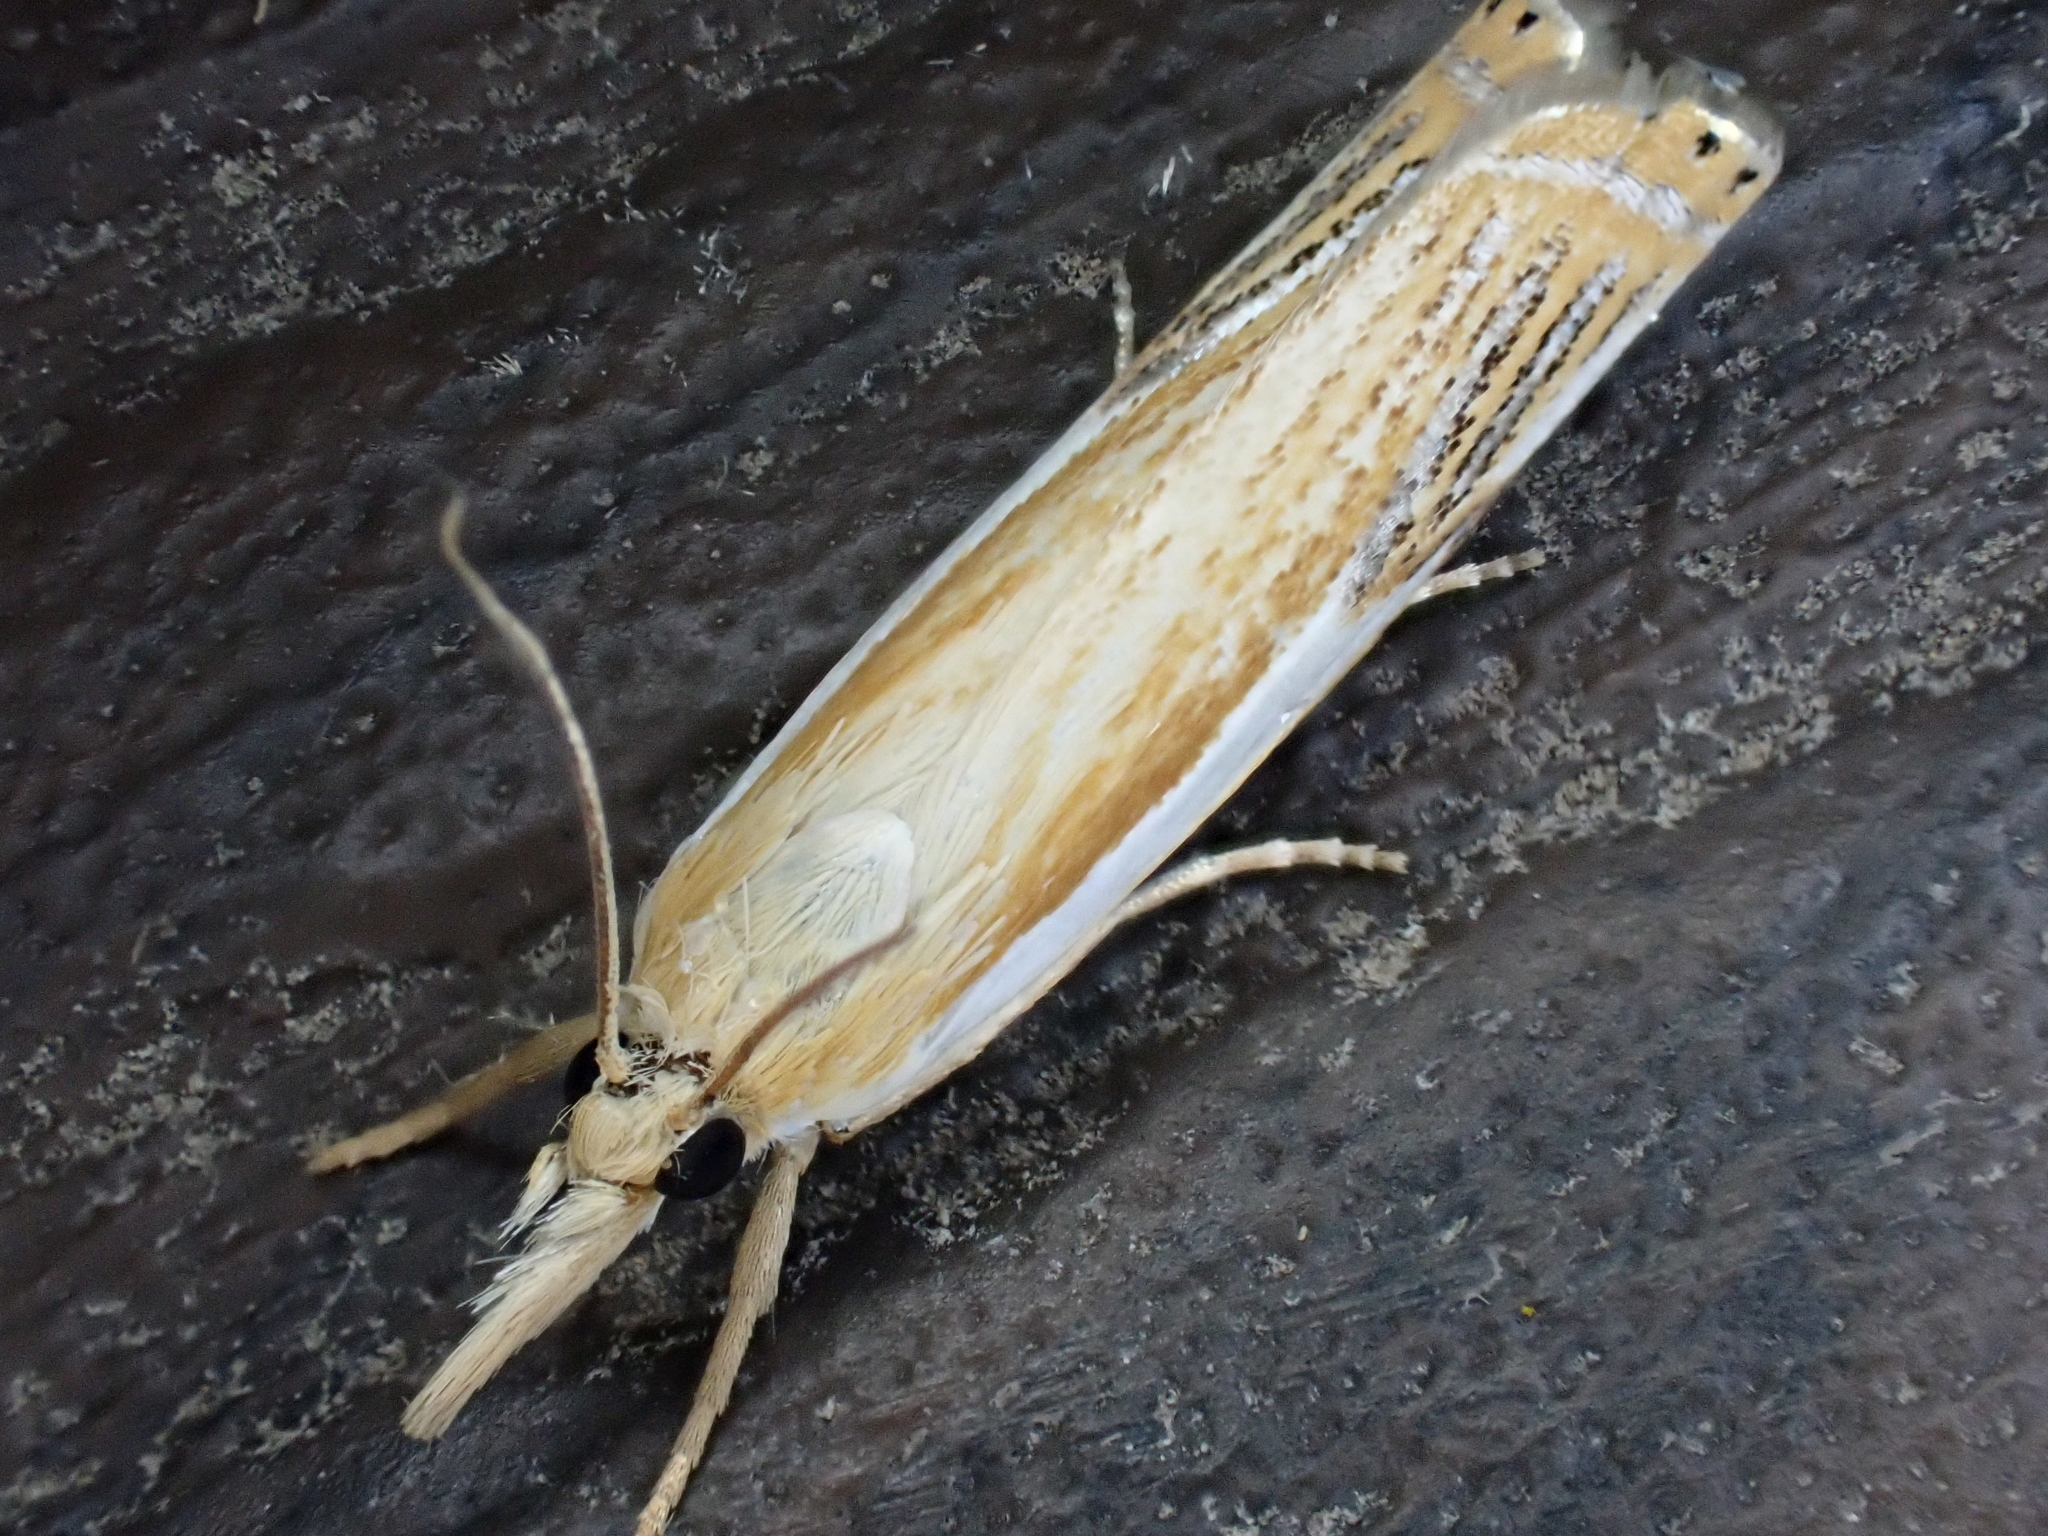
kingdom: Animalia
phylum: Arthropoda
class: Insecta
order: Lepidoptera
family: Crambidae
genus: Crambus
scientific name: Crambus agitatellus
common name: Double-banded grass-veneer
